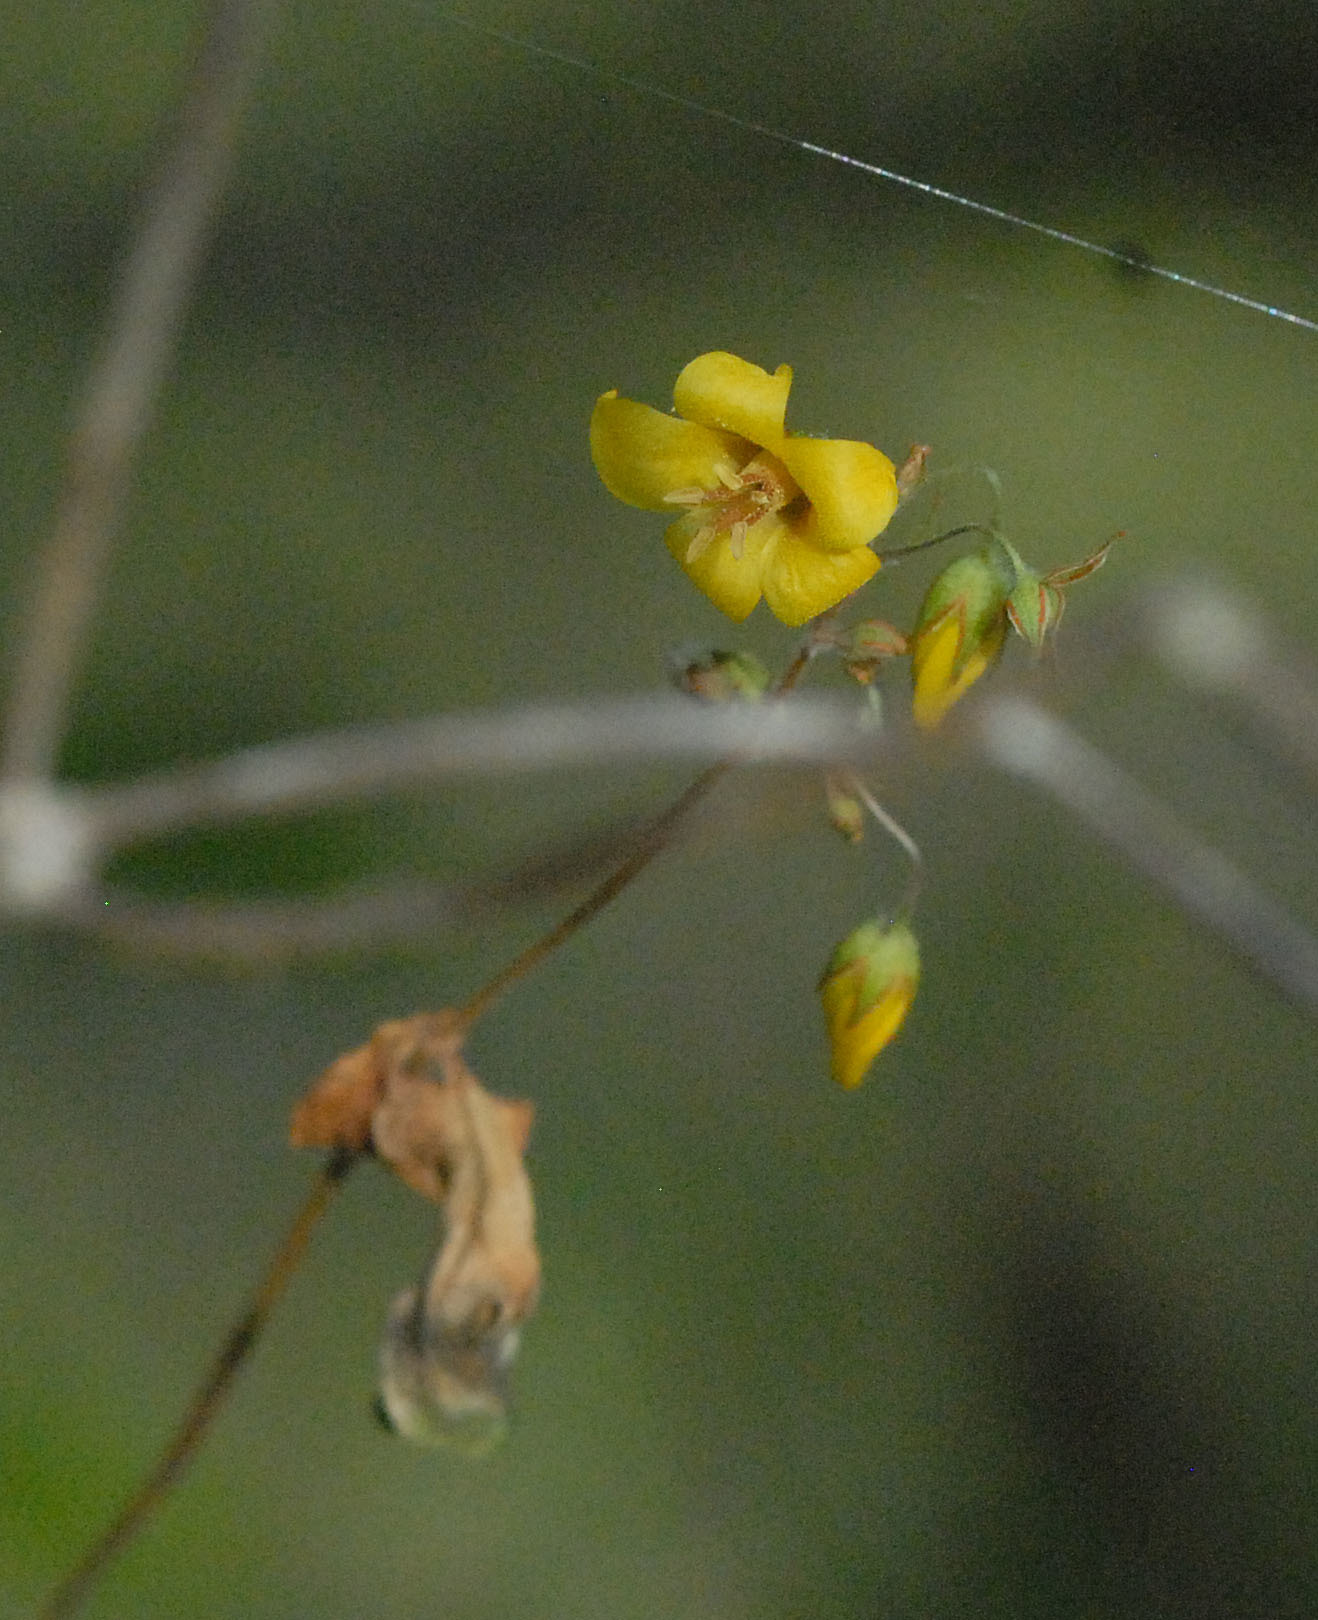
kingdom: Plantae
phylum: Tracheophyta
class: Magnoliopsida
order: Ericales
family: Primulaceae
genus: Lysimachia
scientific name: Lysimachia vulgaris
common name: Yellow loosestrife
